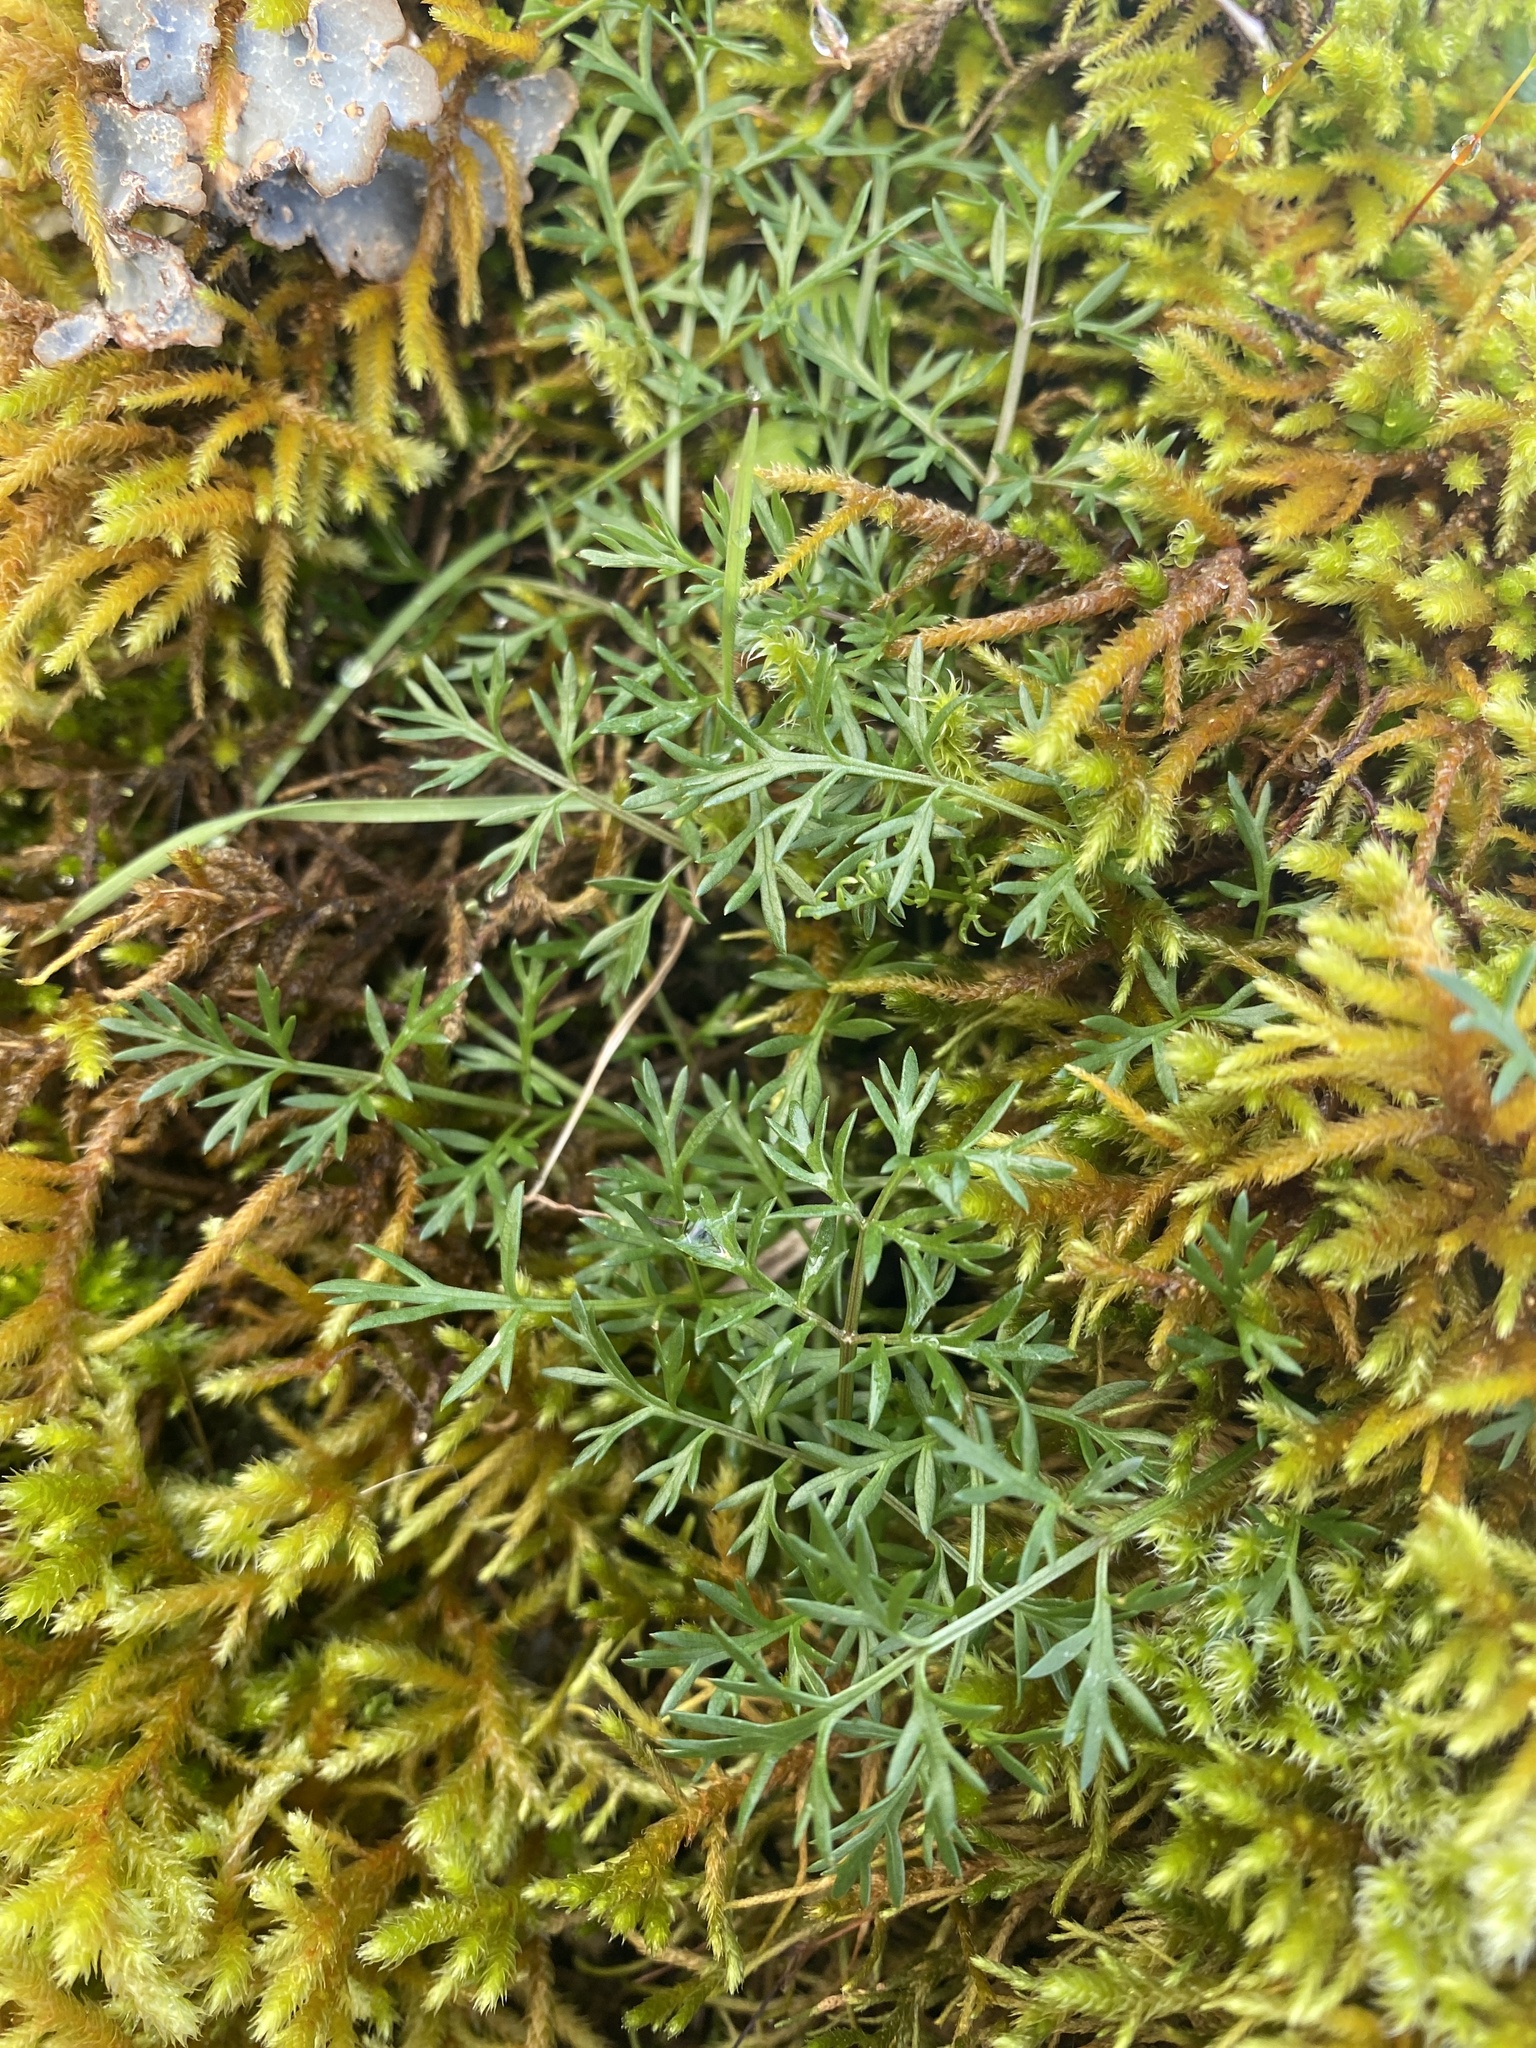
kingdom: Plantae
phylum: Tracheophyta
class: Magnoliopsida
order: Apiales
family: Apiaceae
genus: Lomatium
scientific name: Lomatium utriculatum
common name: Fine-leaf desert-parsley
